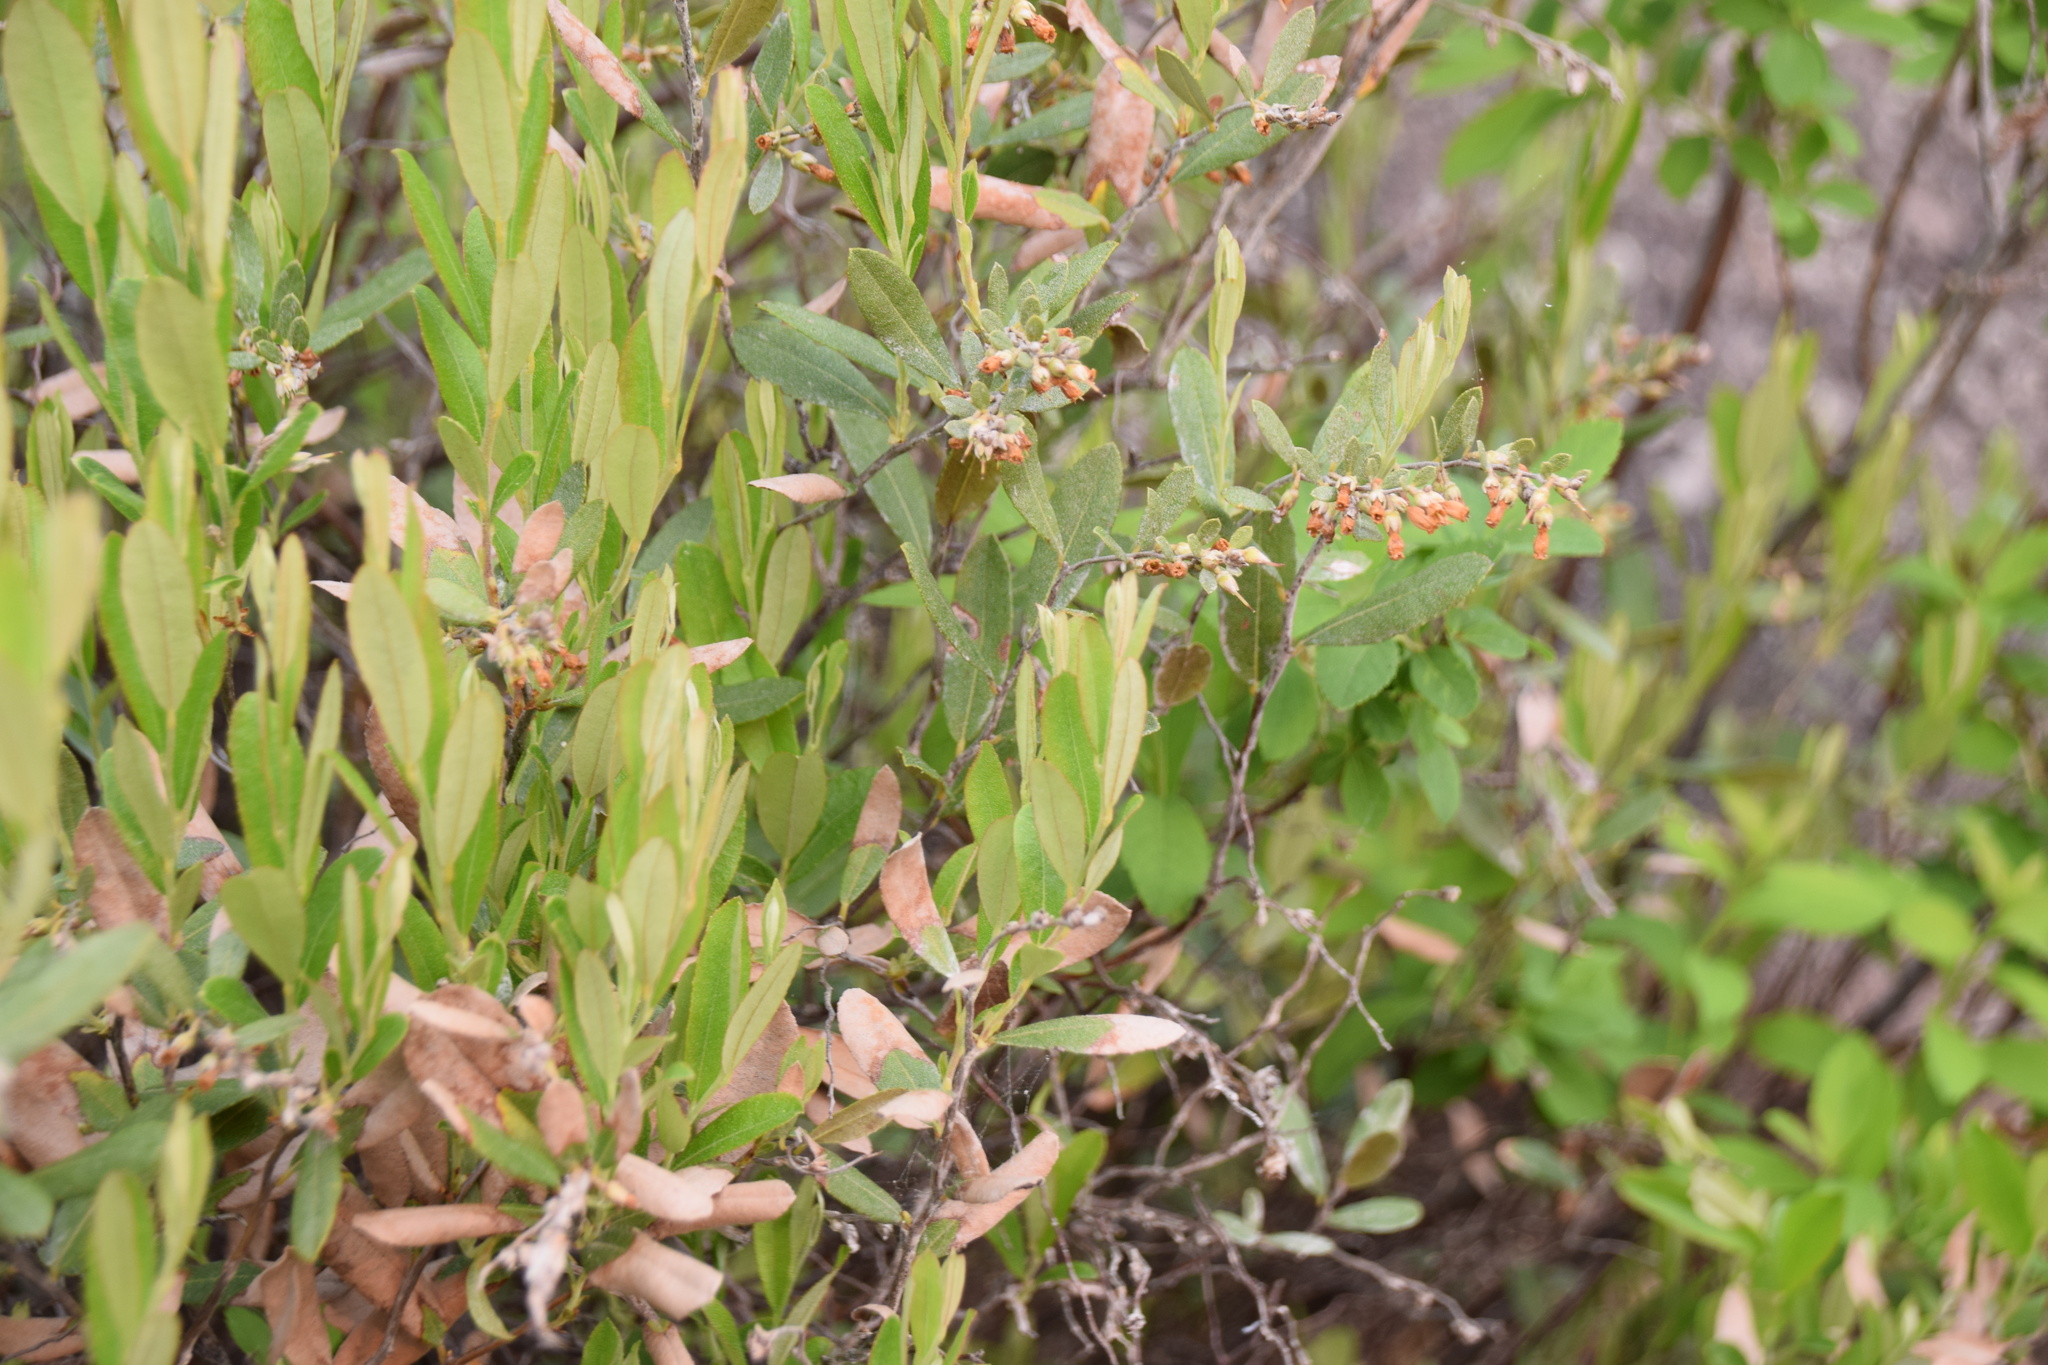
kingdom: Plantae
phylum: Tracheophyta
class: Magnoliopsida
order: Ericales
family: Ericaceae
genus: Chamaedaphne
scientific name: Chamaedaphne calyculata
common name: Leatherleaf
